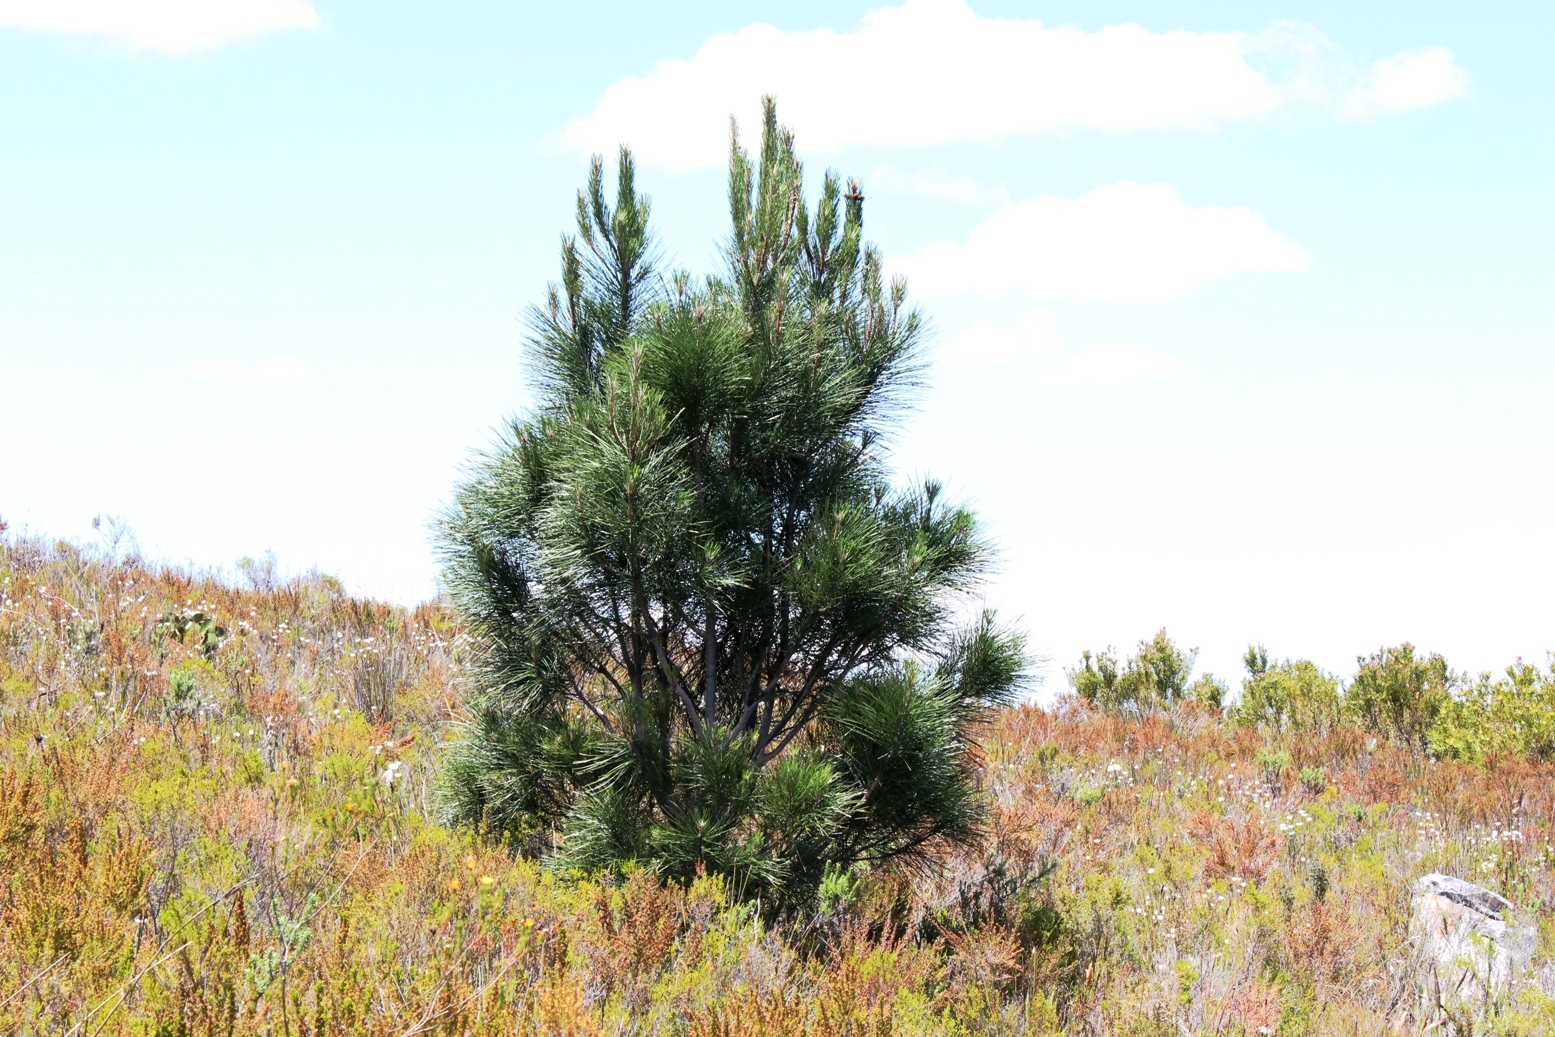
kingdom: Plantae
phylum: Tracheophyta
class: Pinopsida
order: Pinales
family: Pinaceae
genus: Pinus
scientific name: Pinus pinaster
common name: Maritime pine
